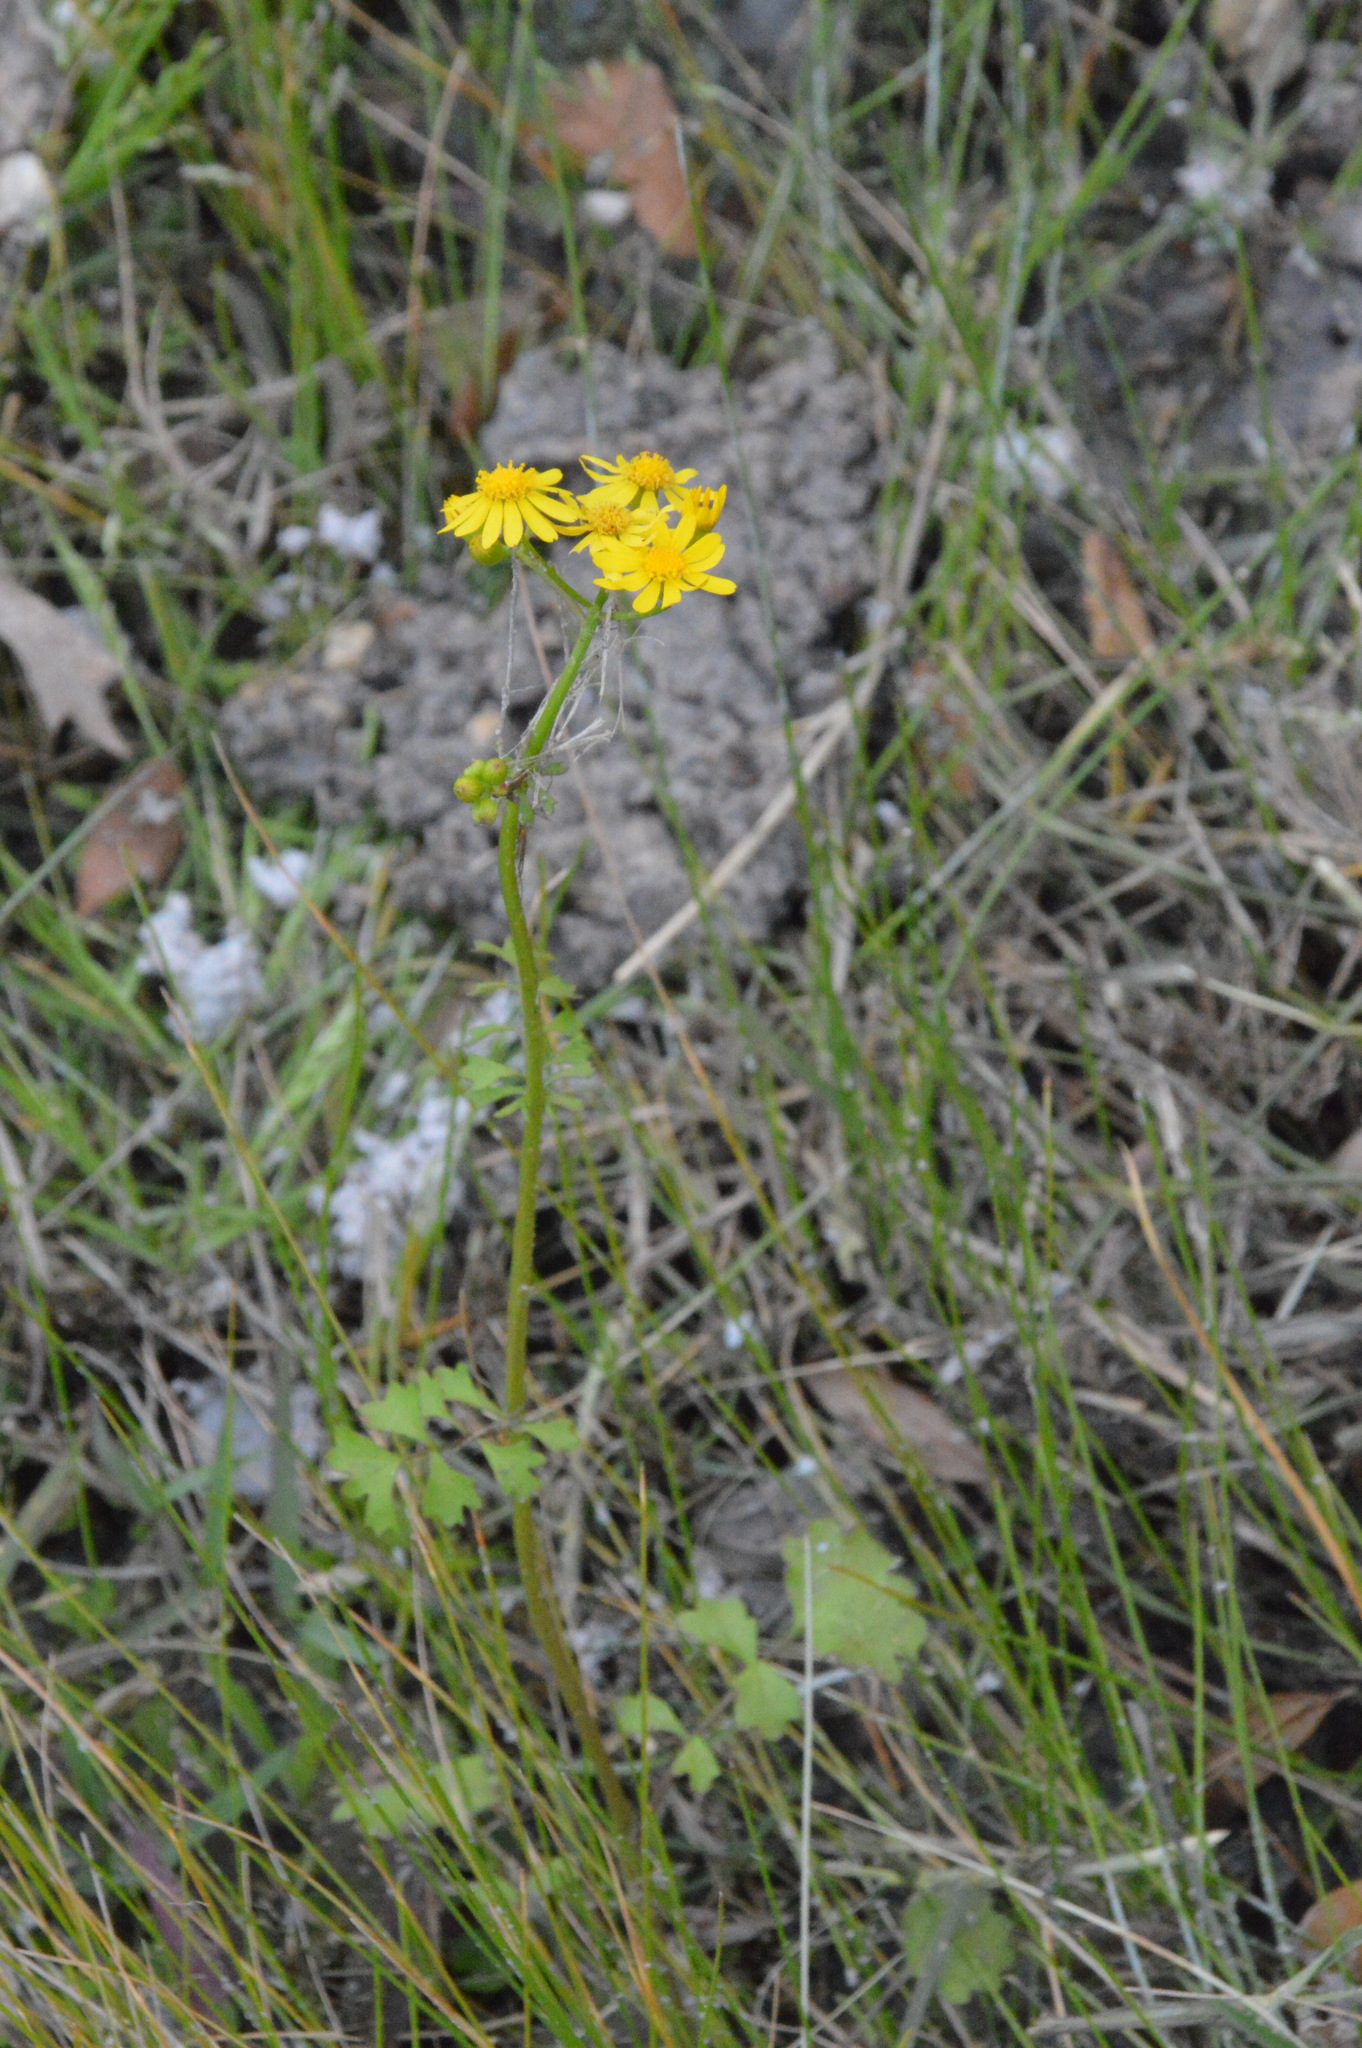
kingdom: Plantae
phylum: Tracheophyta
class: Magnoliopsida
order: Asterales
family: Asteraceae
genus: Packera
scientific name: Packera glabella
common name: Butterweed
